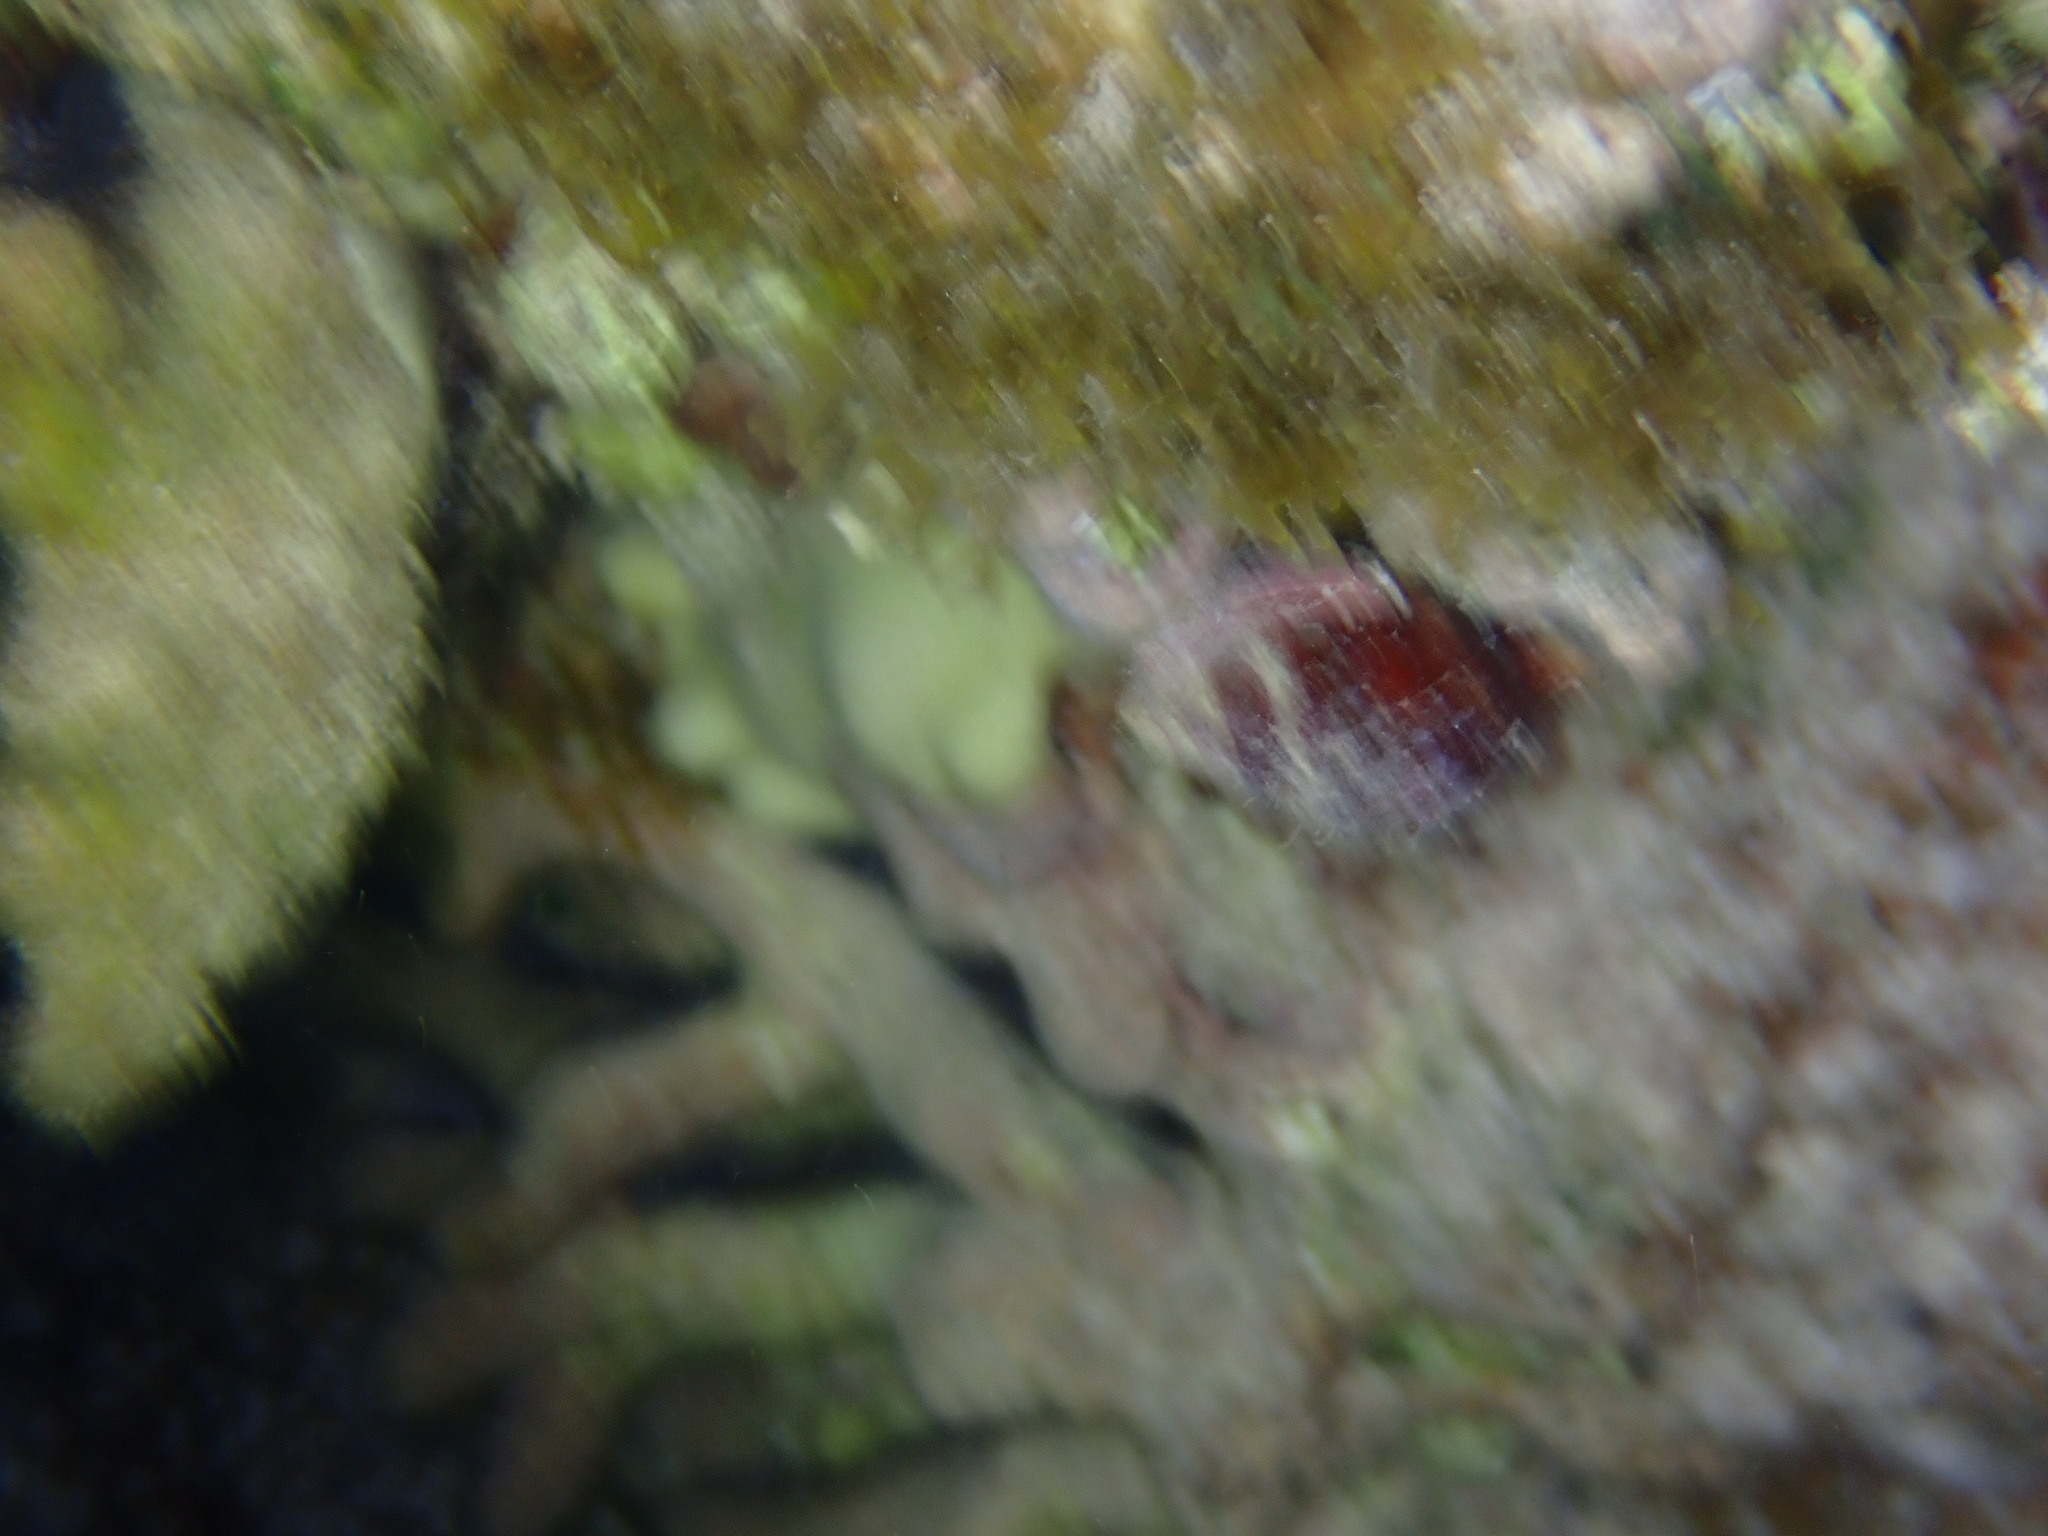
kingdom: Animalia
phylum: Mollusca
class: Gastropoda
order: Neogastropoda
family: Fasciolariidae
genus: Leucozonia
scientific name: Leucozonia leucozonalis
